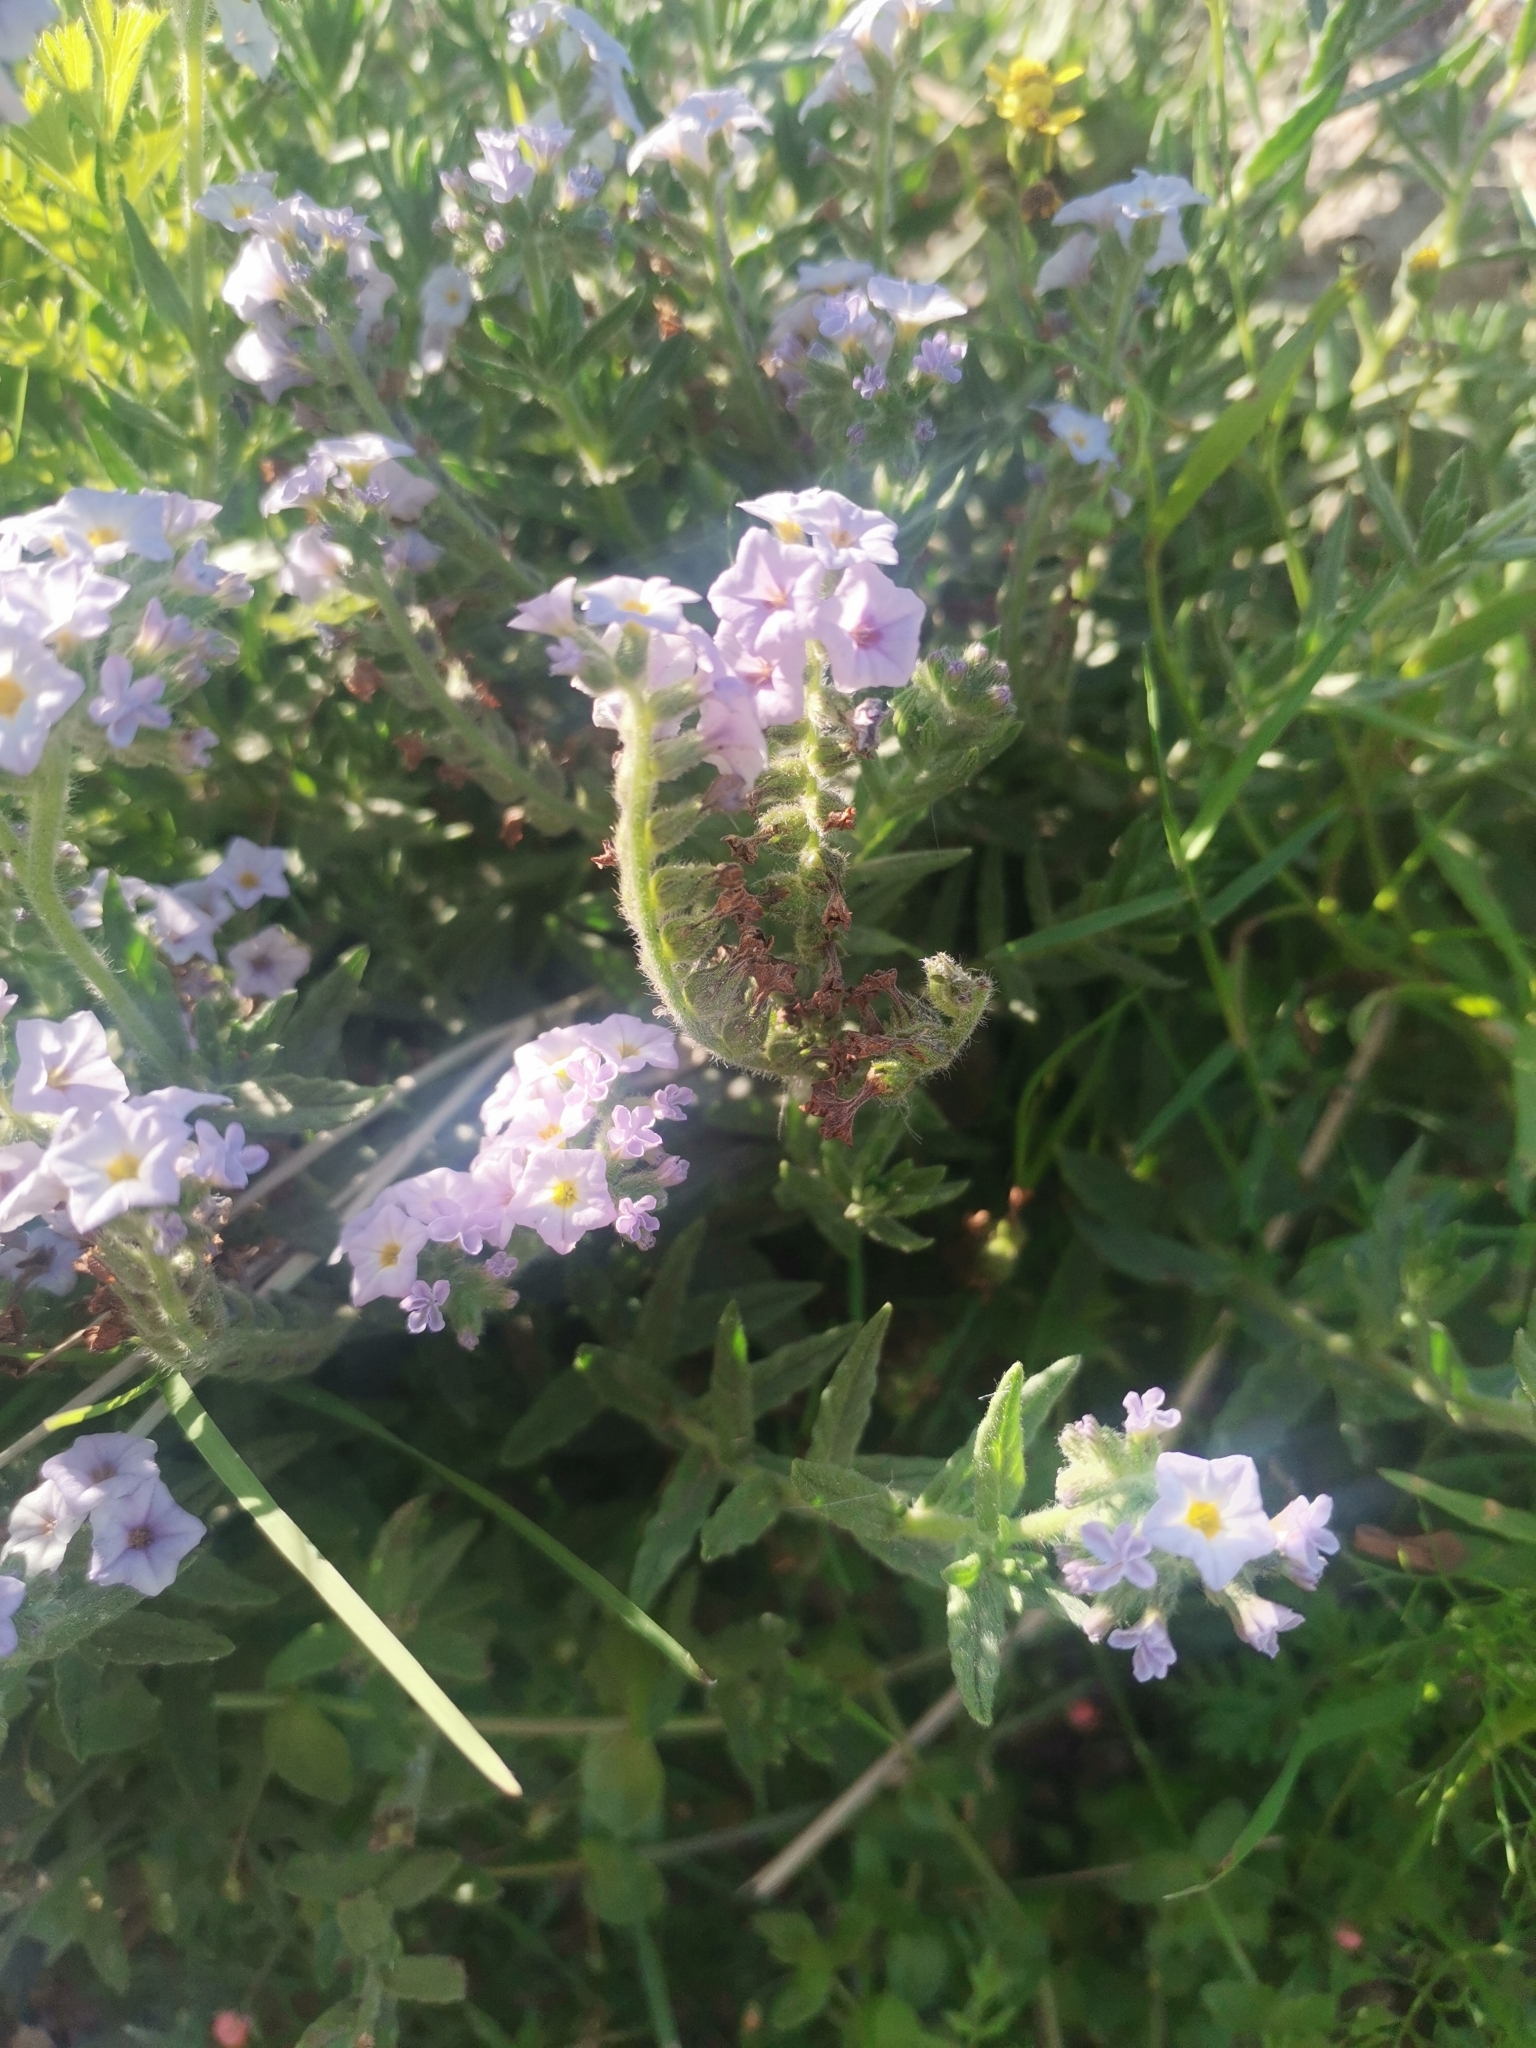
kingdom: Plantae
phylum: Tracheophyta
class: Magnoliopsida
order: Boraginales
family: Heliotropiaceae
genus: Heliotropium
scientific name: Heliotropium amplexicaule
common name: Clasping heliotrope
